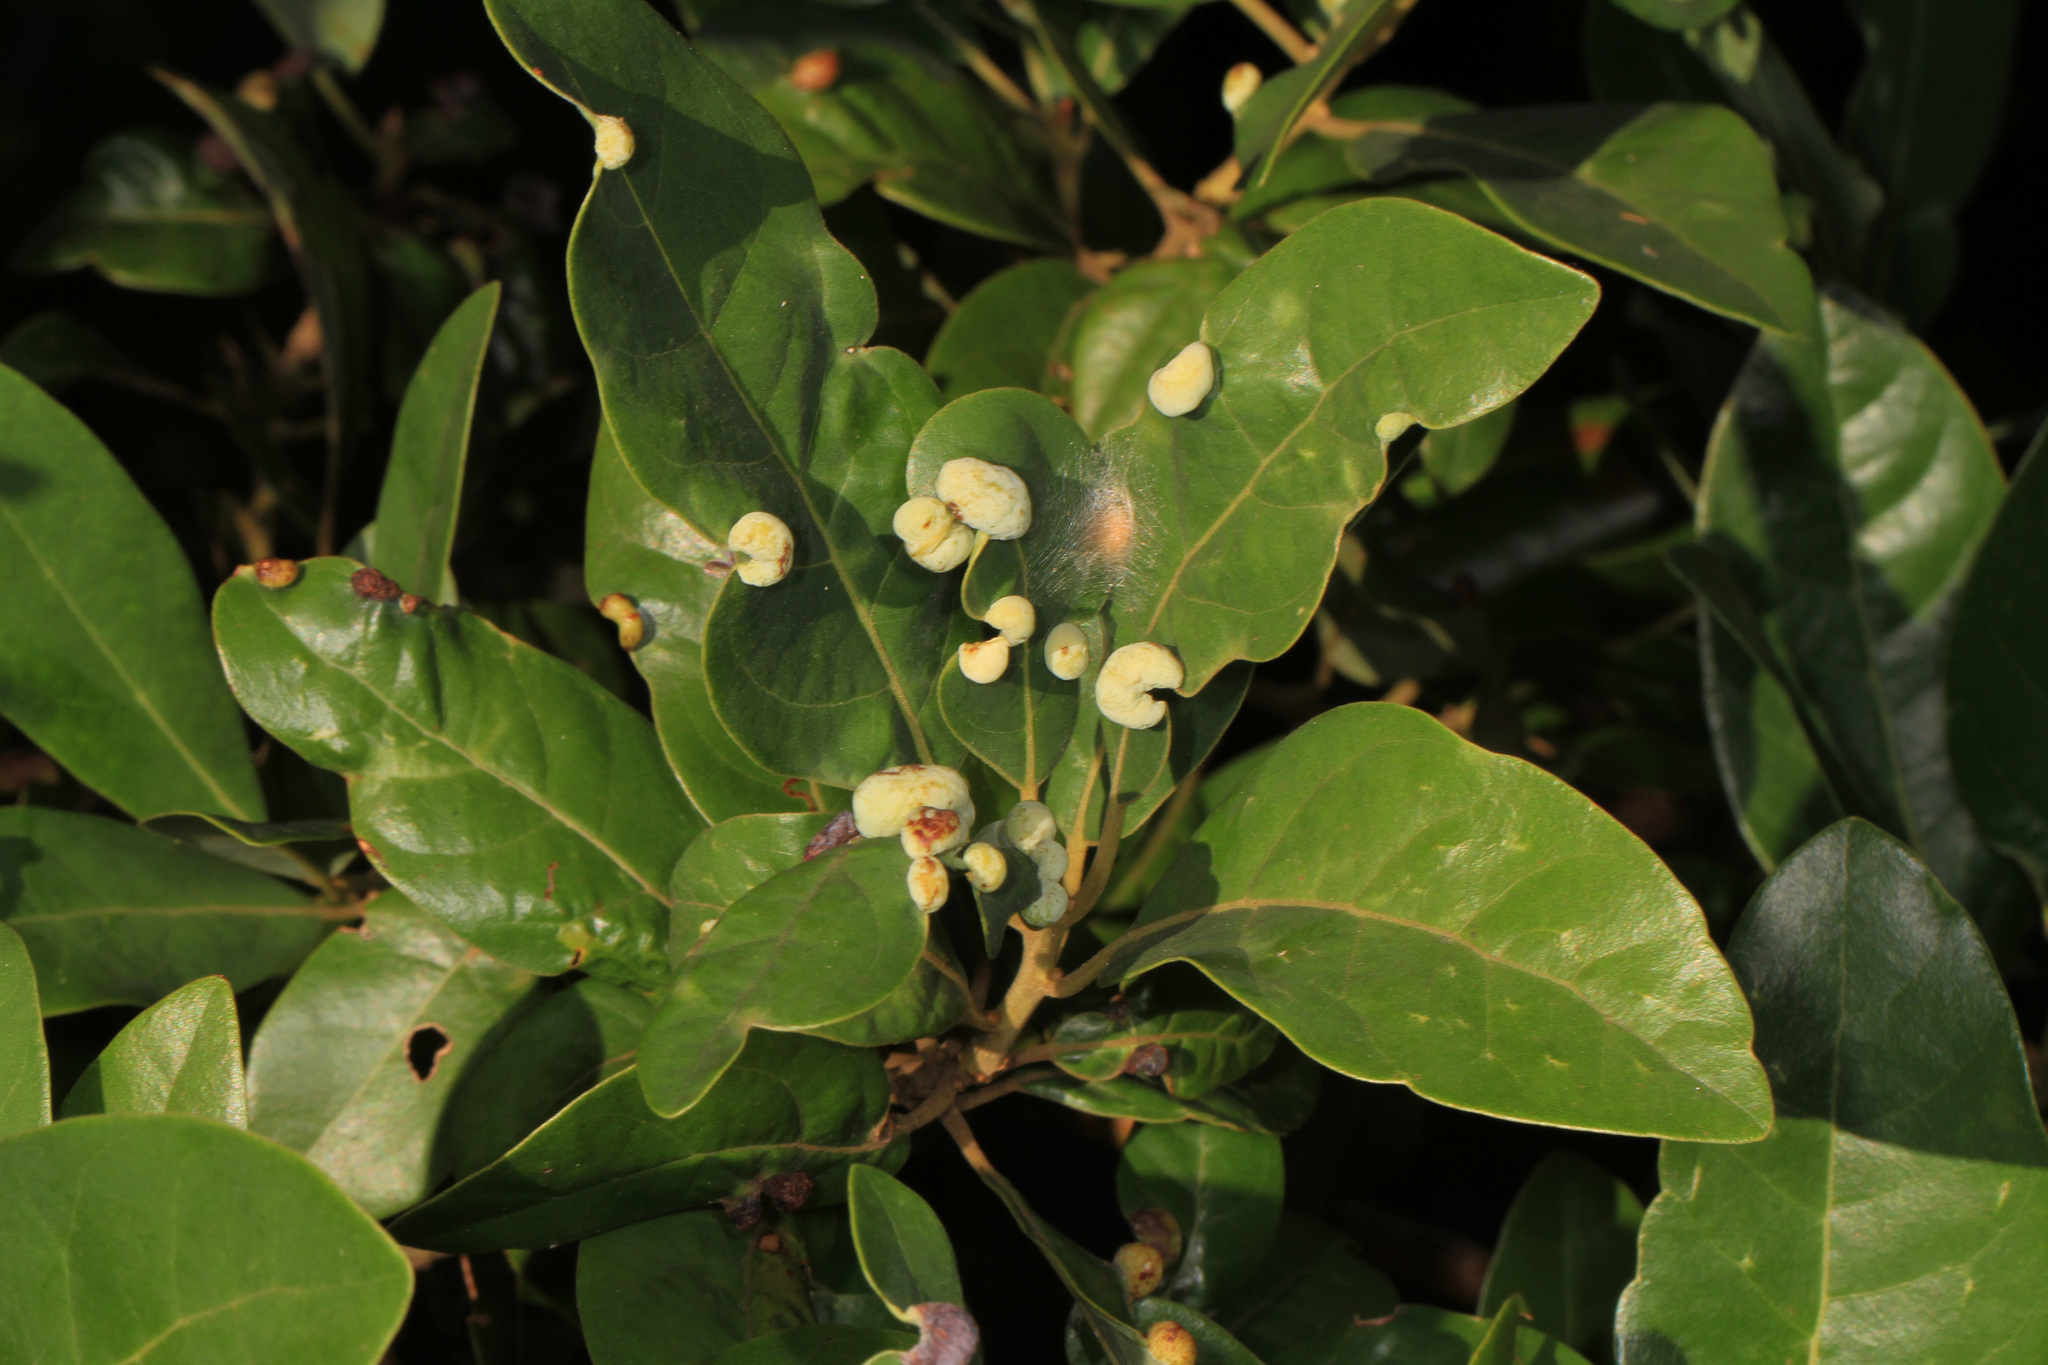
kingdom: Animalia
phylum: Arthropoda
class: Insecta
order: Hemiptera
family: Triozidae
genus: Trioza
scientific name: Trioza magnoliae
